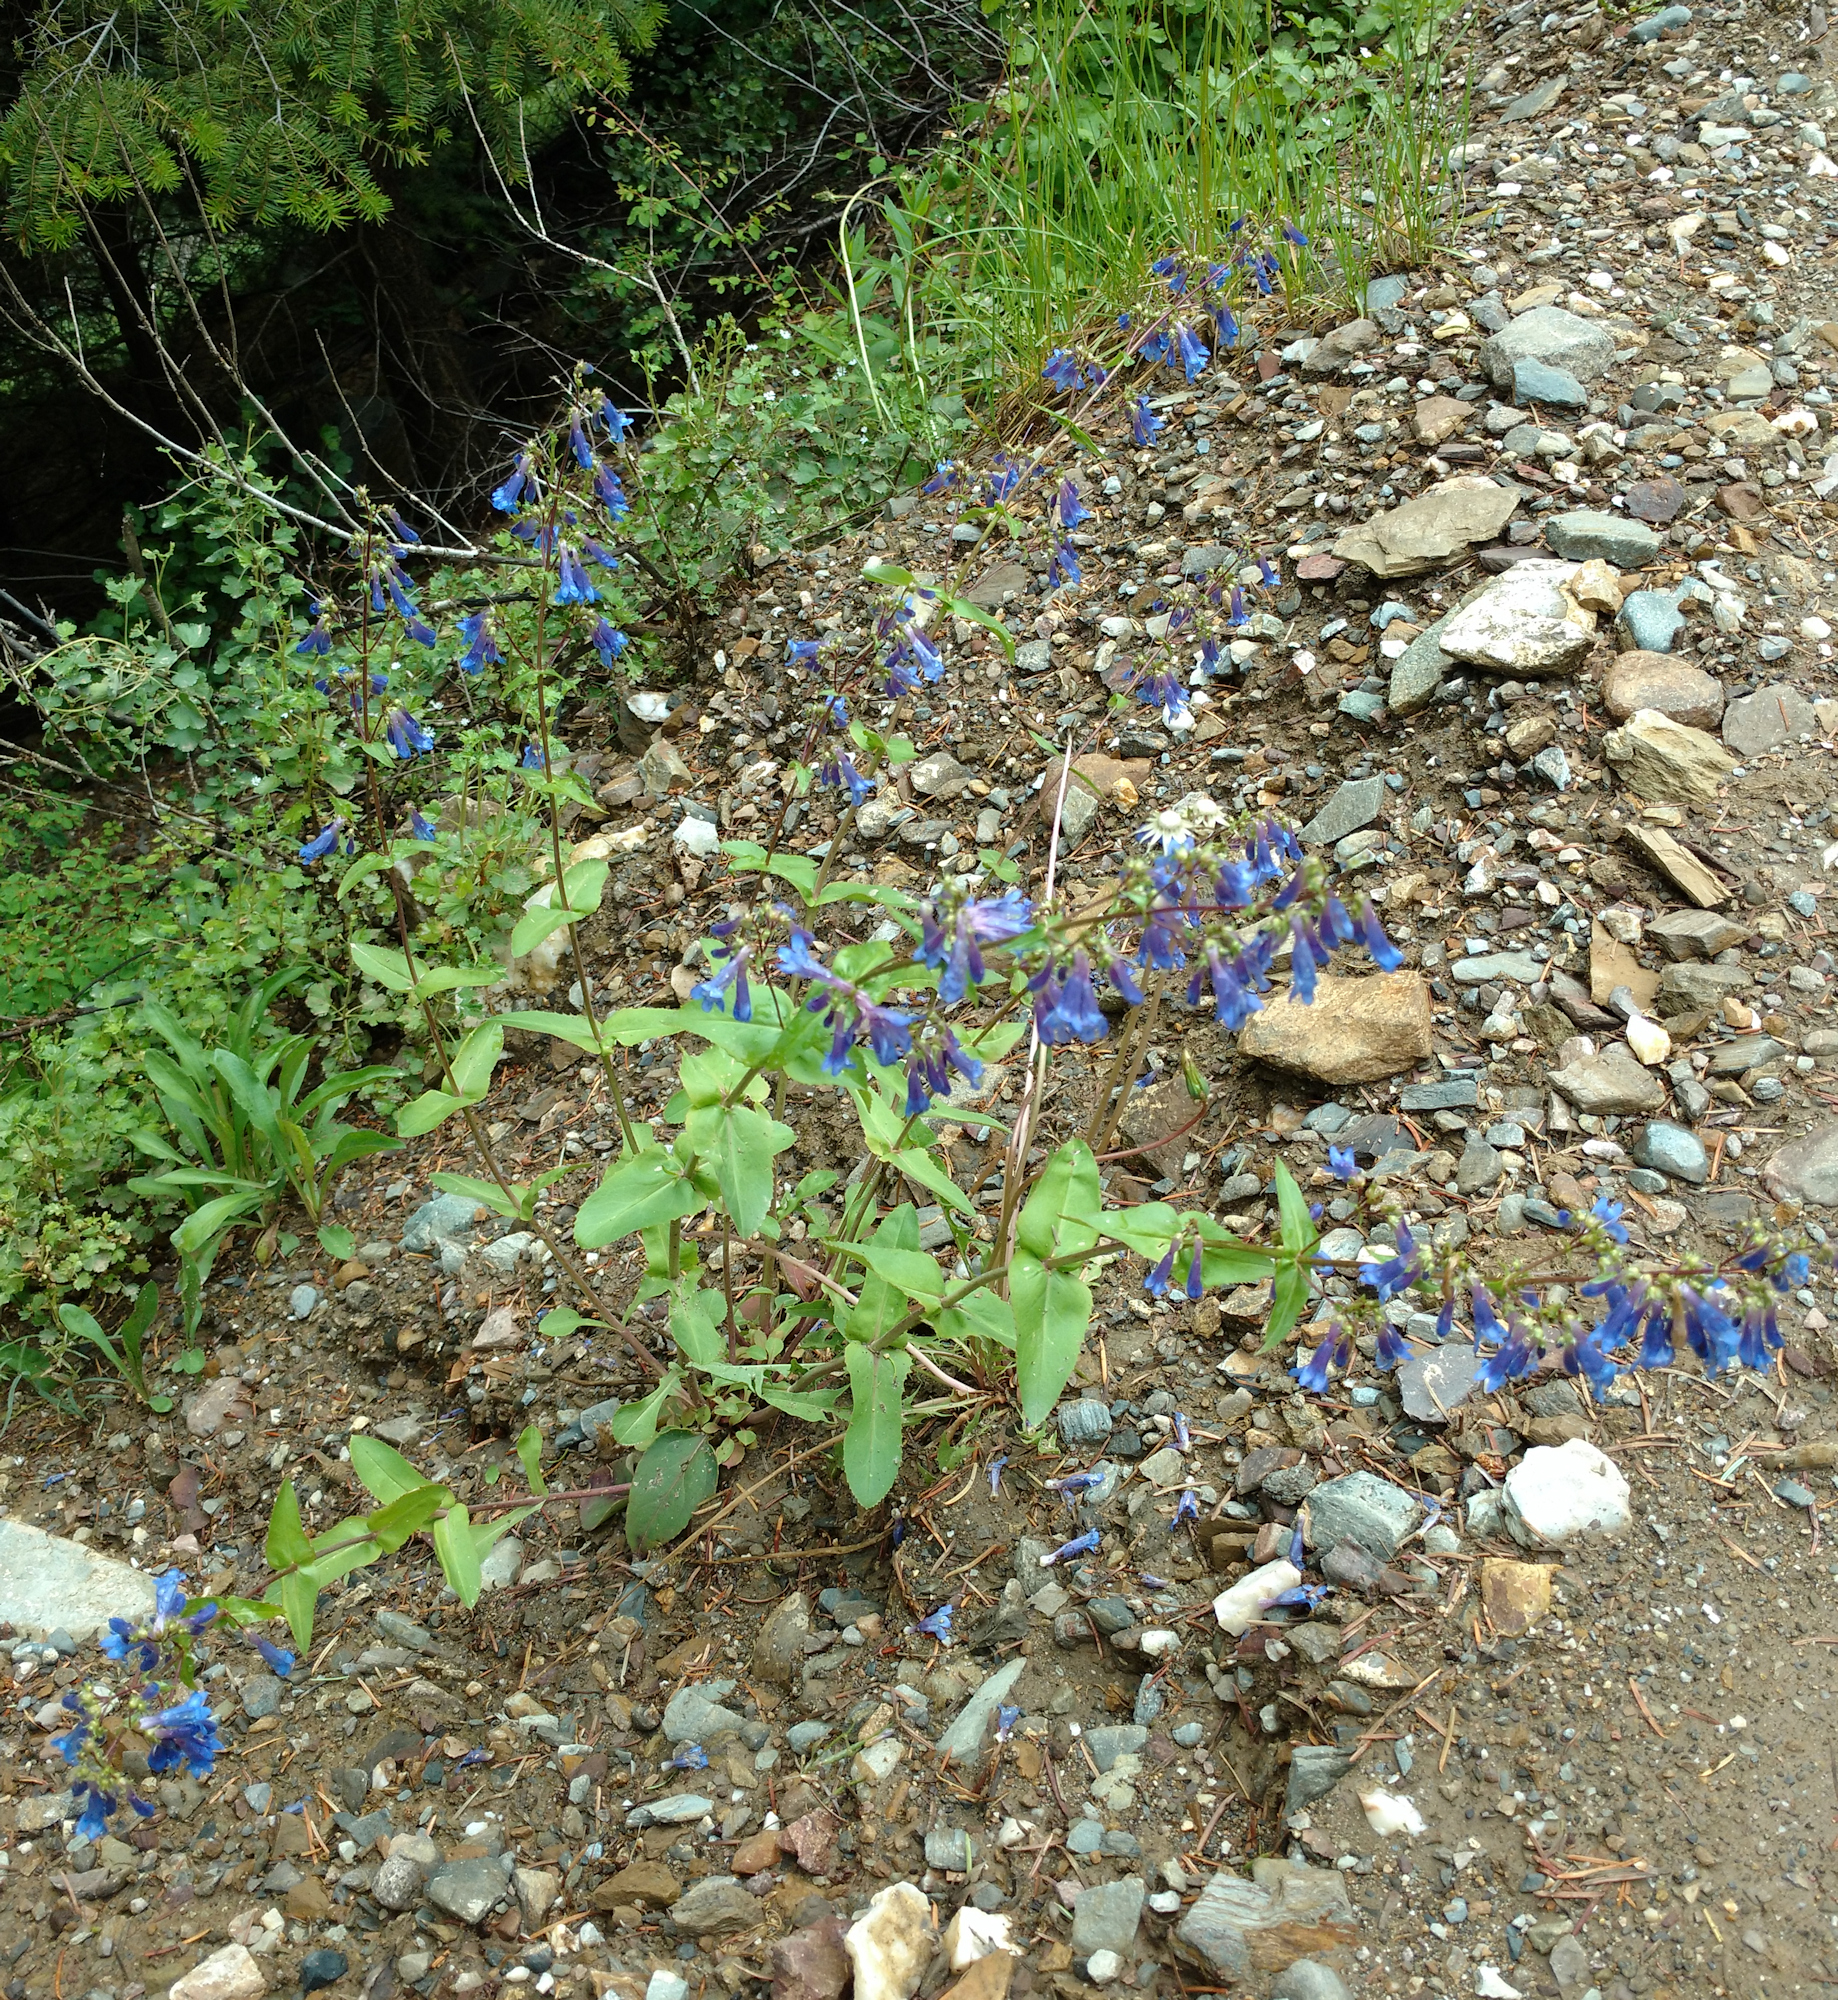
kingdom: Plantae
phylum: Tracheophyta
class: Magnoliopsida
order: Lamiales
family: Plantaginaceae
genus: Penstemon
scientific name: Penstemon wilcoxii
